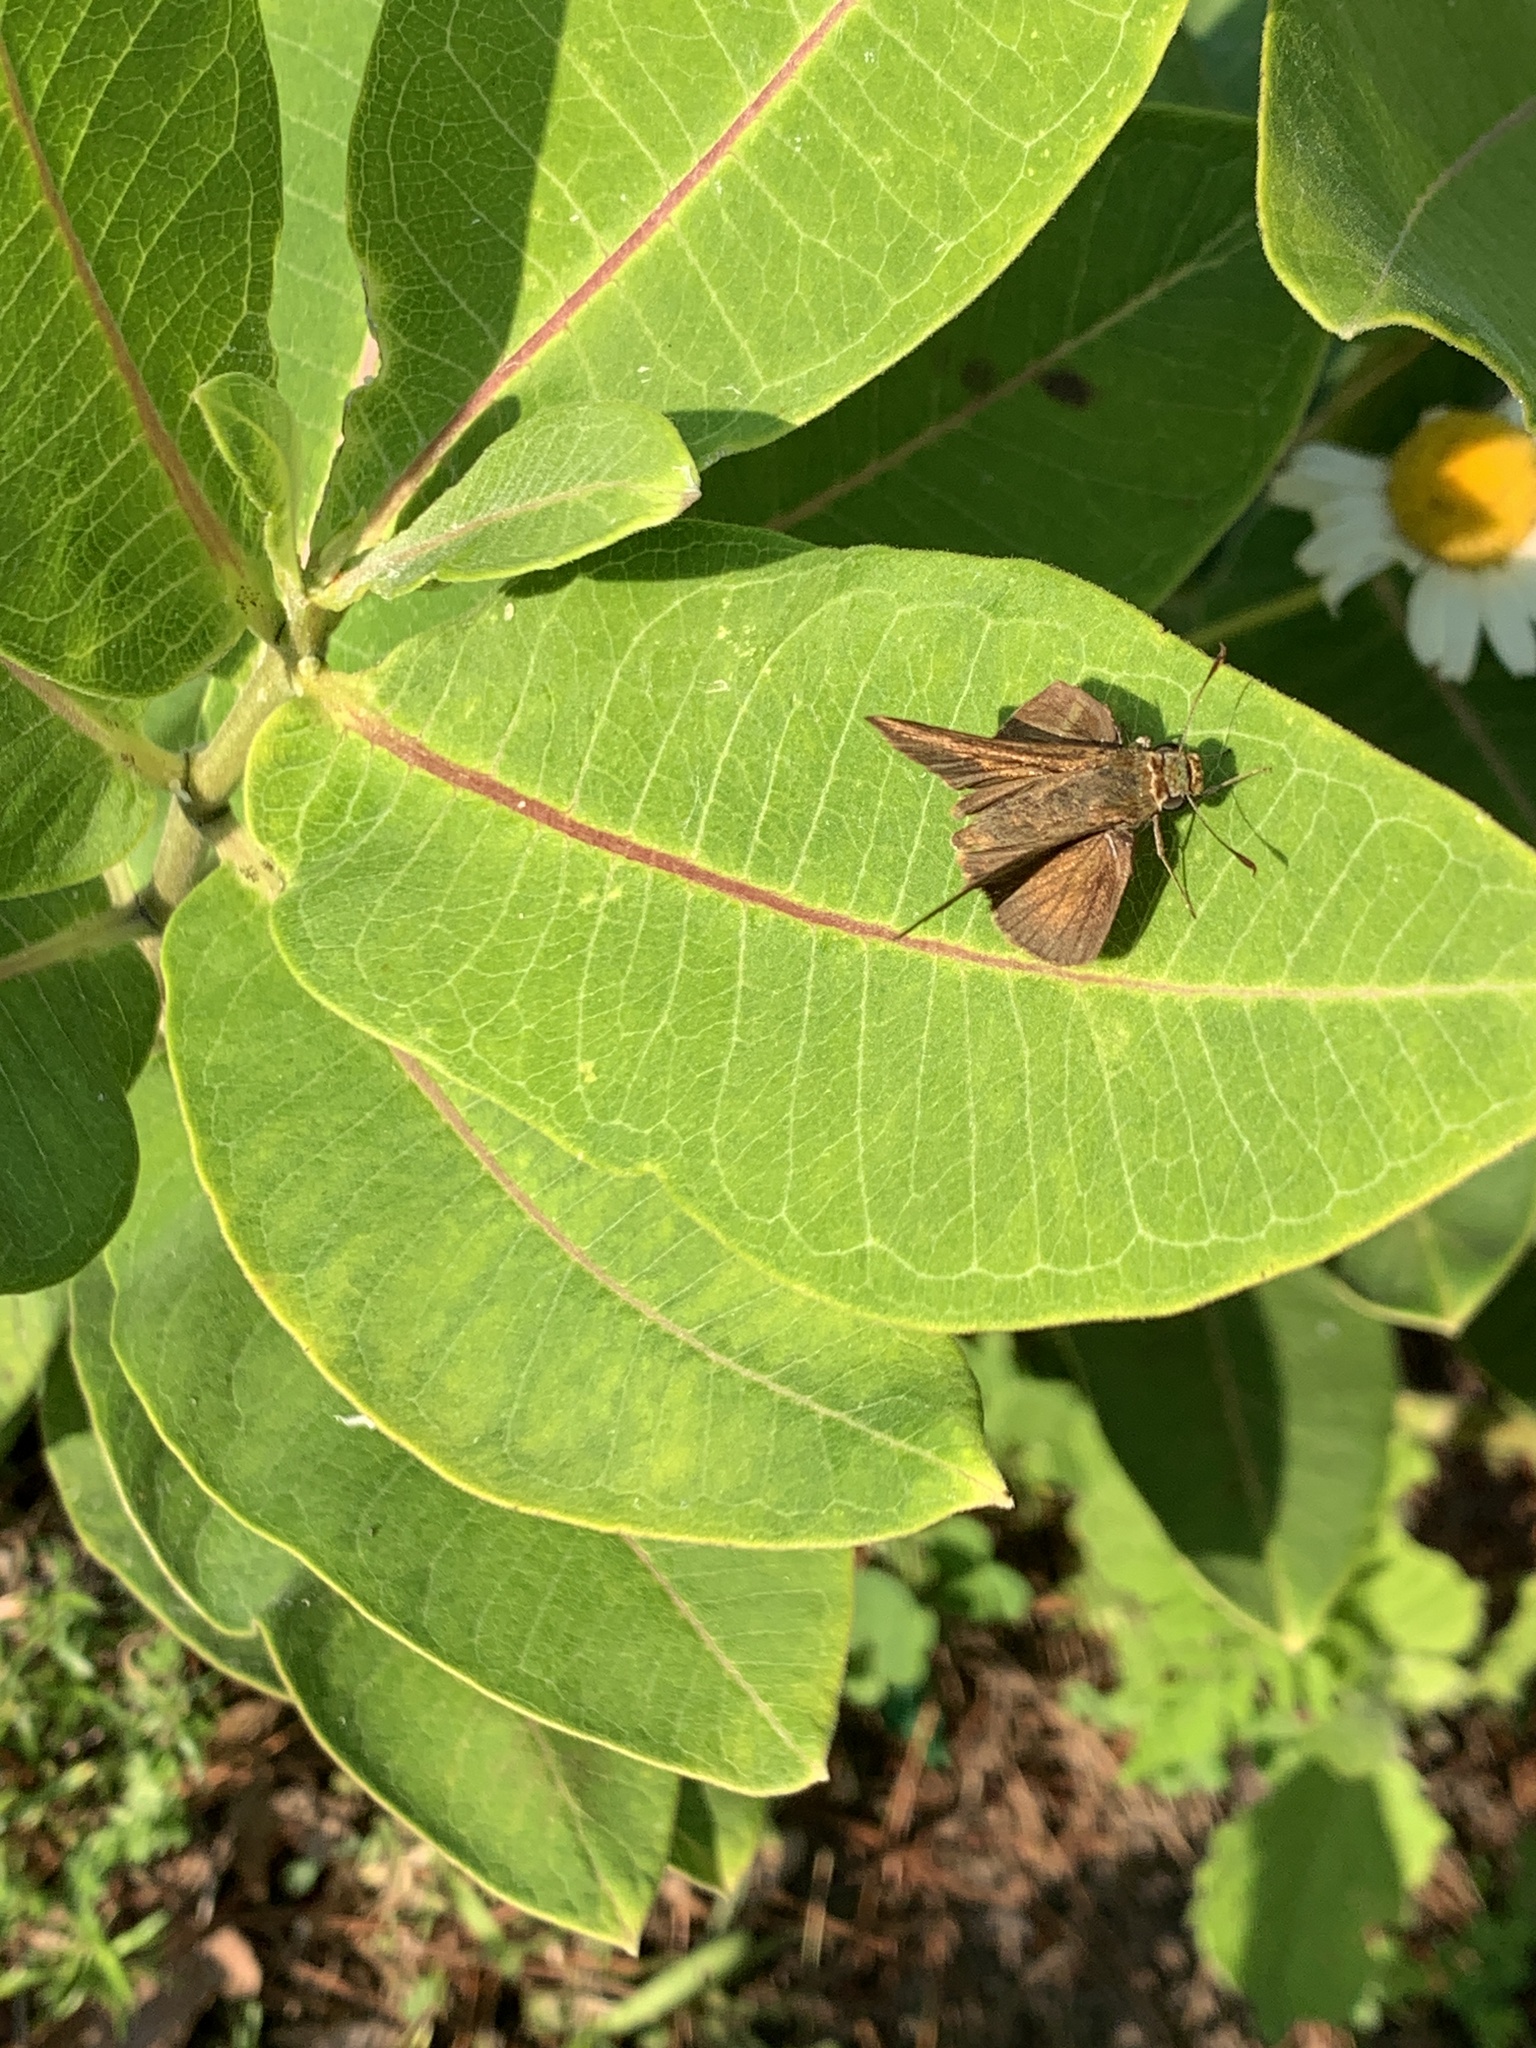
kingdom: Animalia
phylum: Arthropoda
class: Insecta
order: Lepidoptera
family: Hesperiidae
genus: Euphyes
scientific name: Euphyes vestris
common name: Dun skipper
